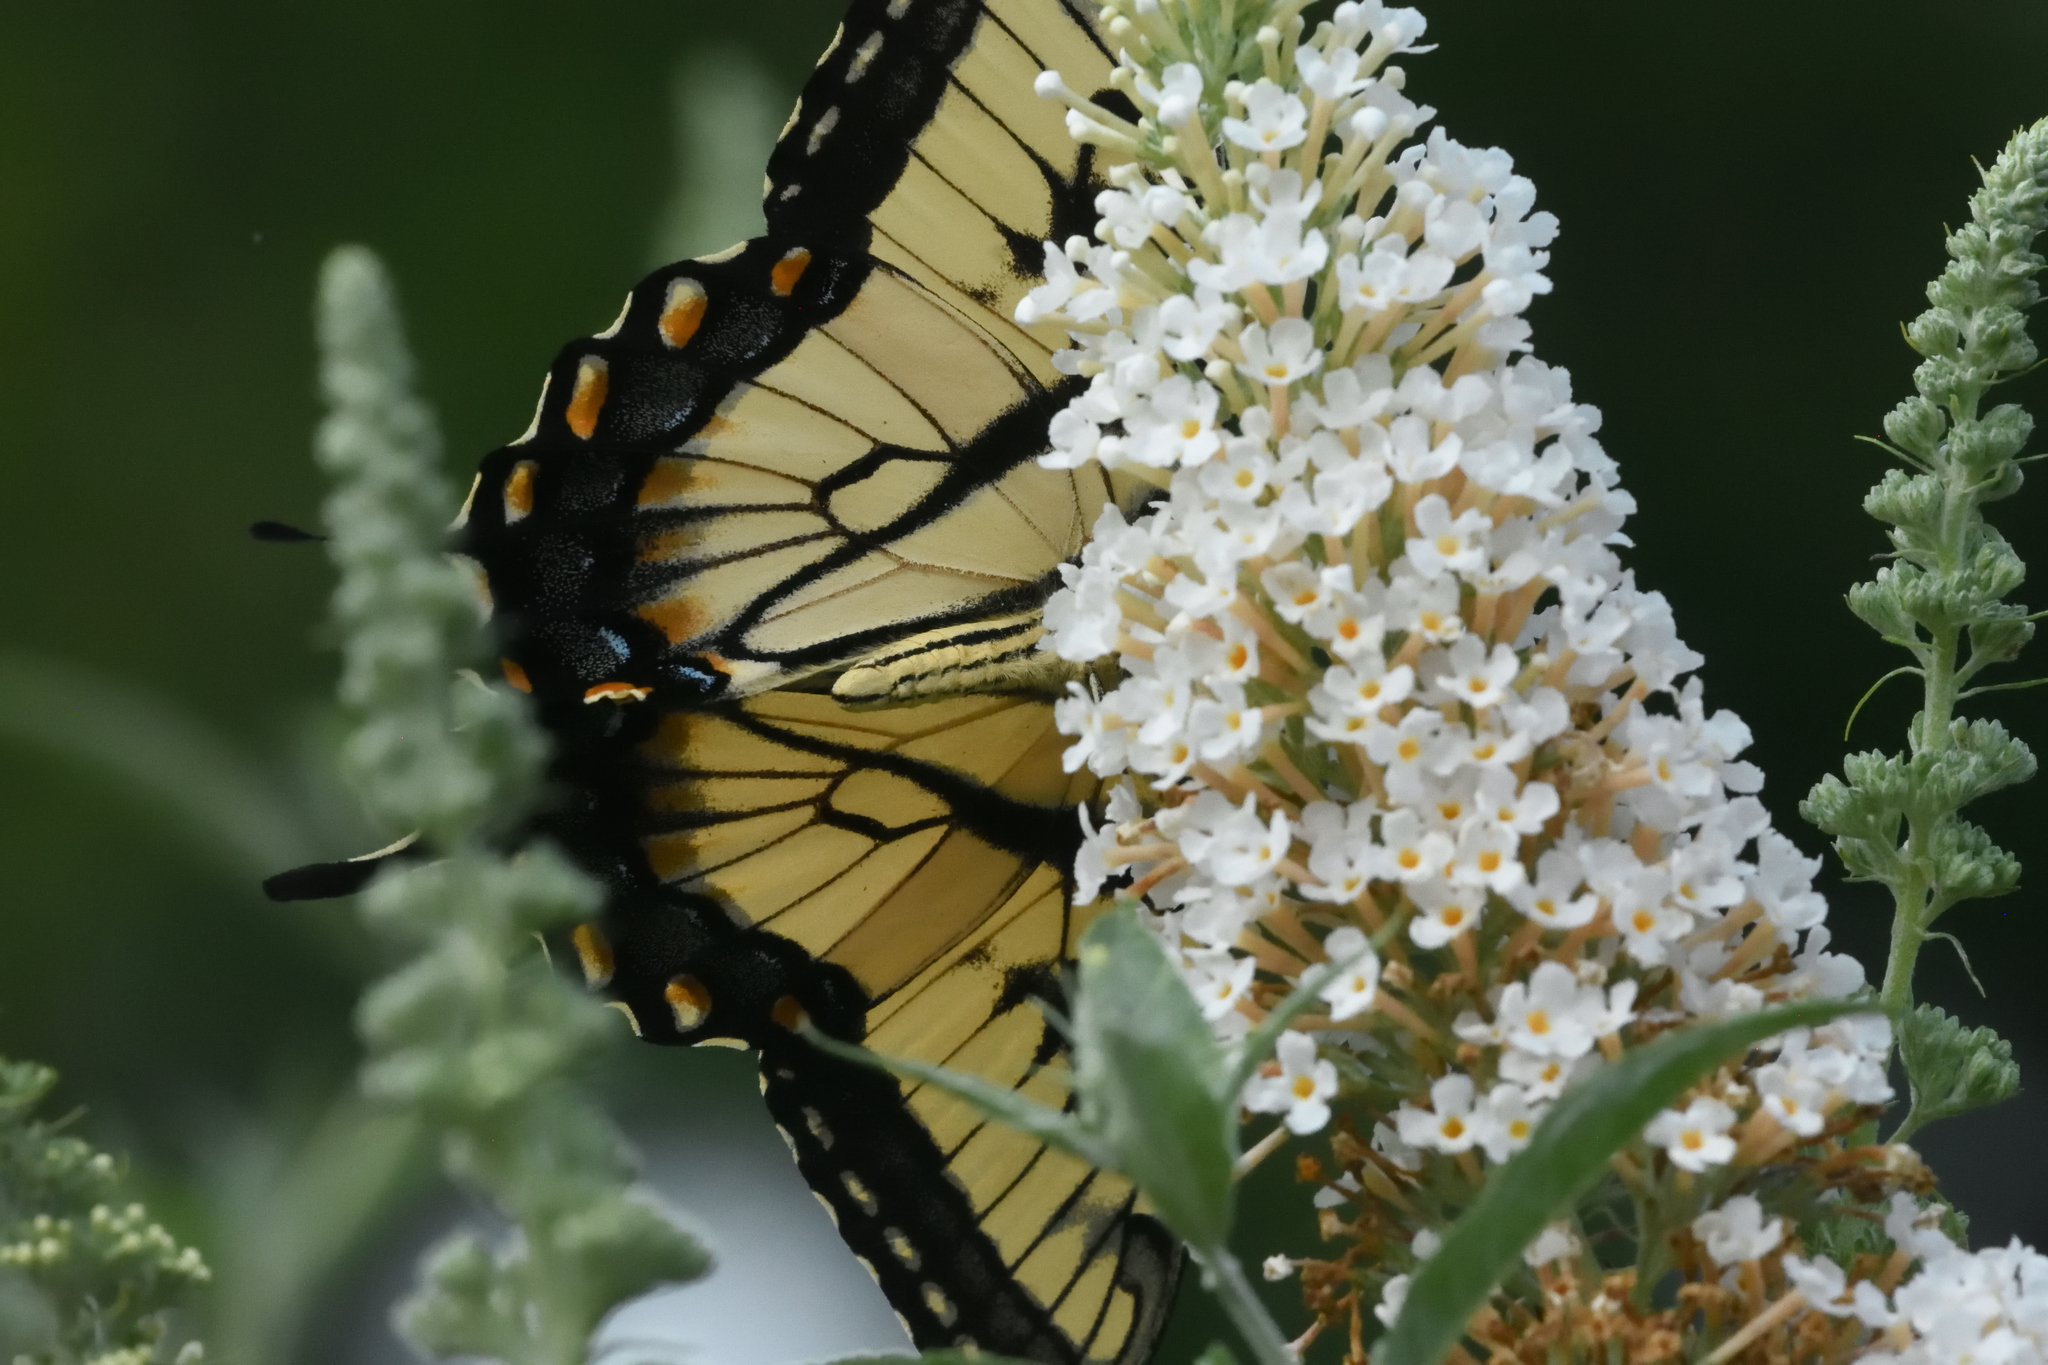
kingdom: Animalia
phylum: Arthropoda
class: Insecta
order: Lepidoptera
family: Papilionidae
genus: Papilio
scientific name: Papilio glaucus
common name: Tiger swallowtail
